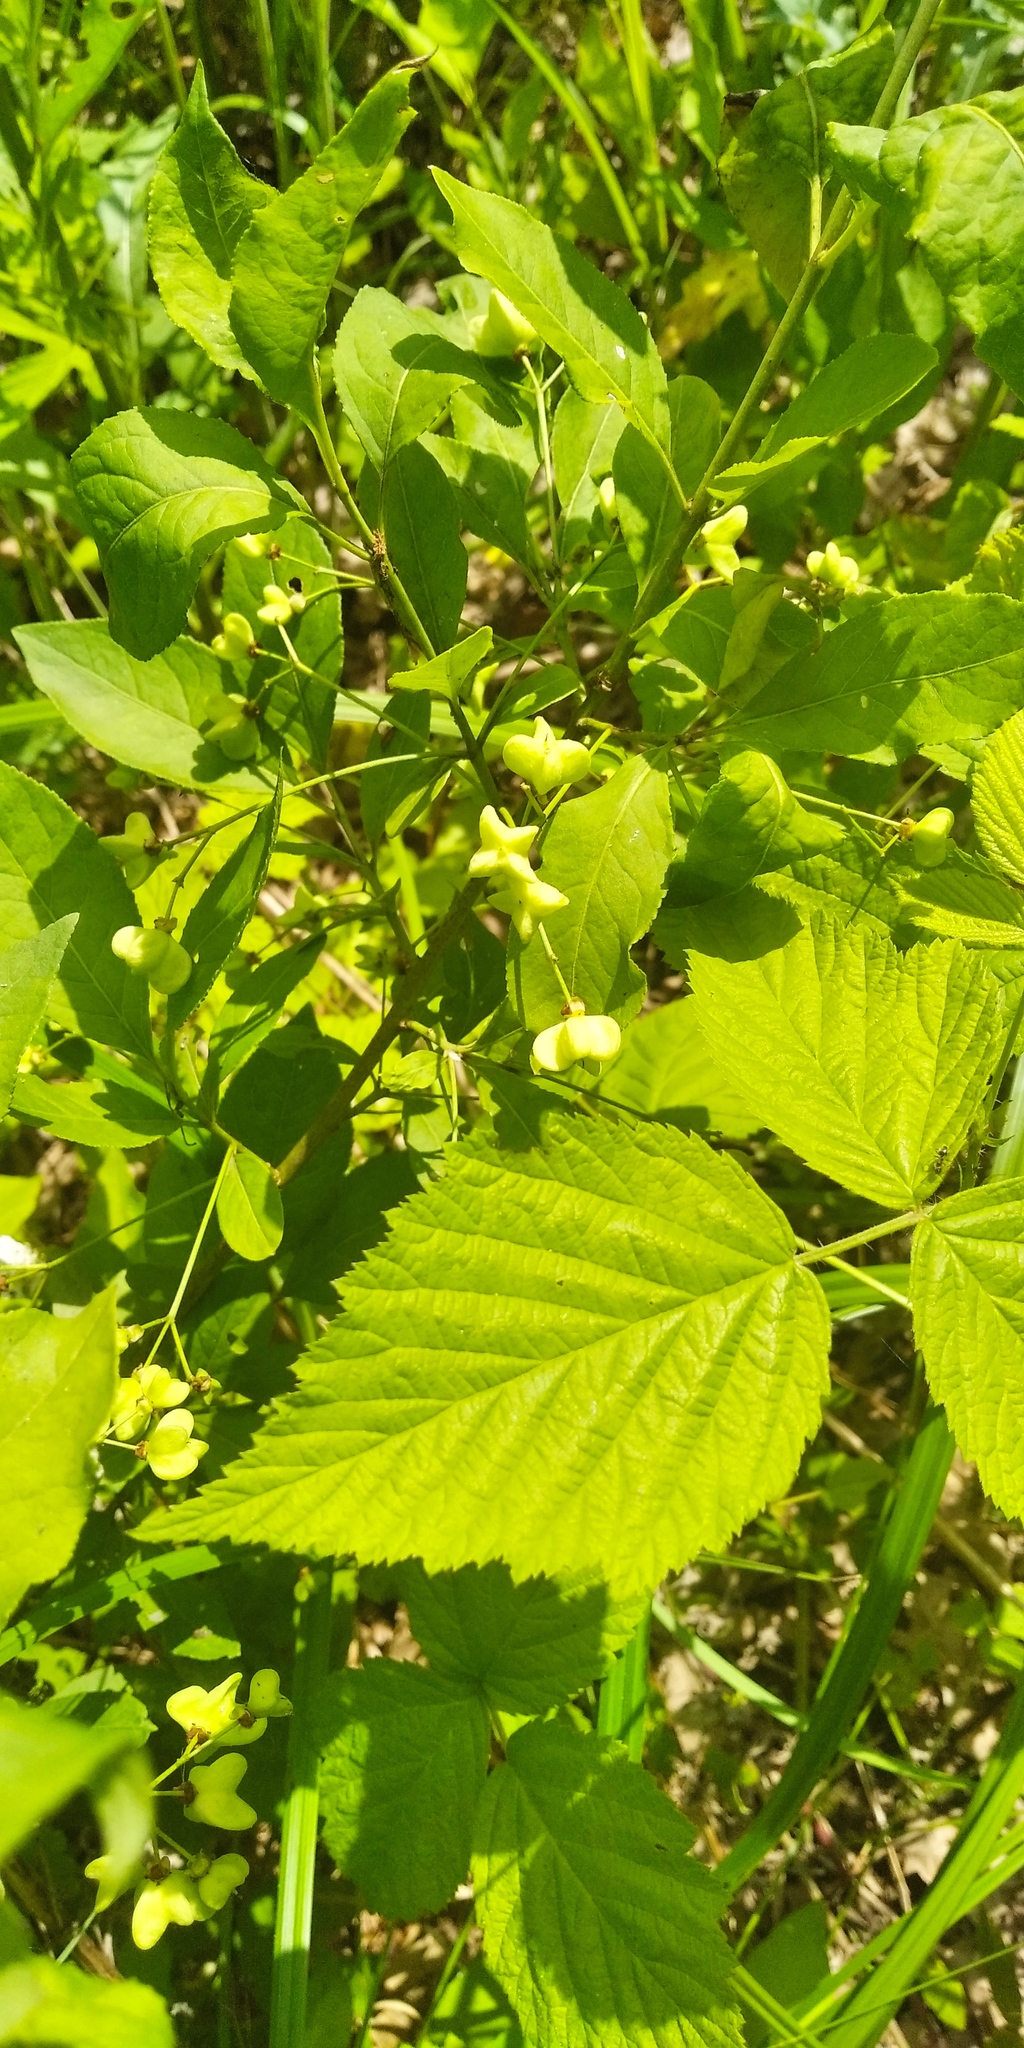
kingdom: Plantae
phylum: Tracheophyta
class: Magnoliopsida
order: Celastrales
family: Celastraceae
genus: Euonymus
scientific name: Euonymus europaeus
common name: Spindle
